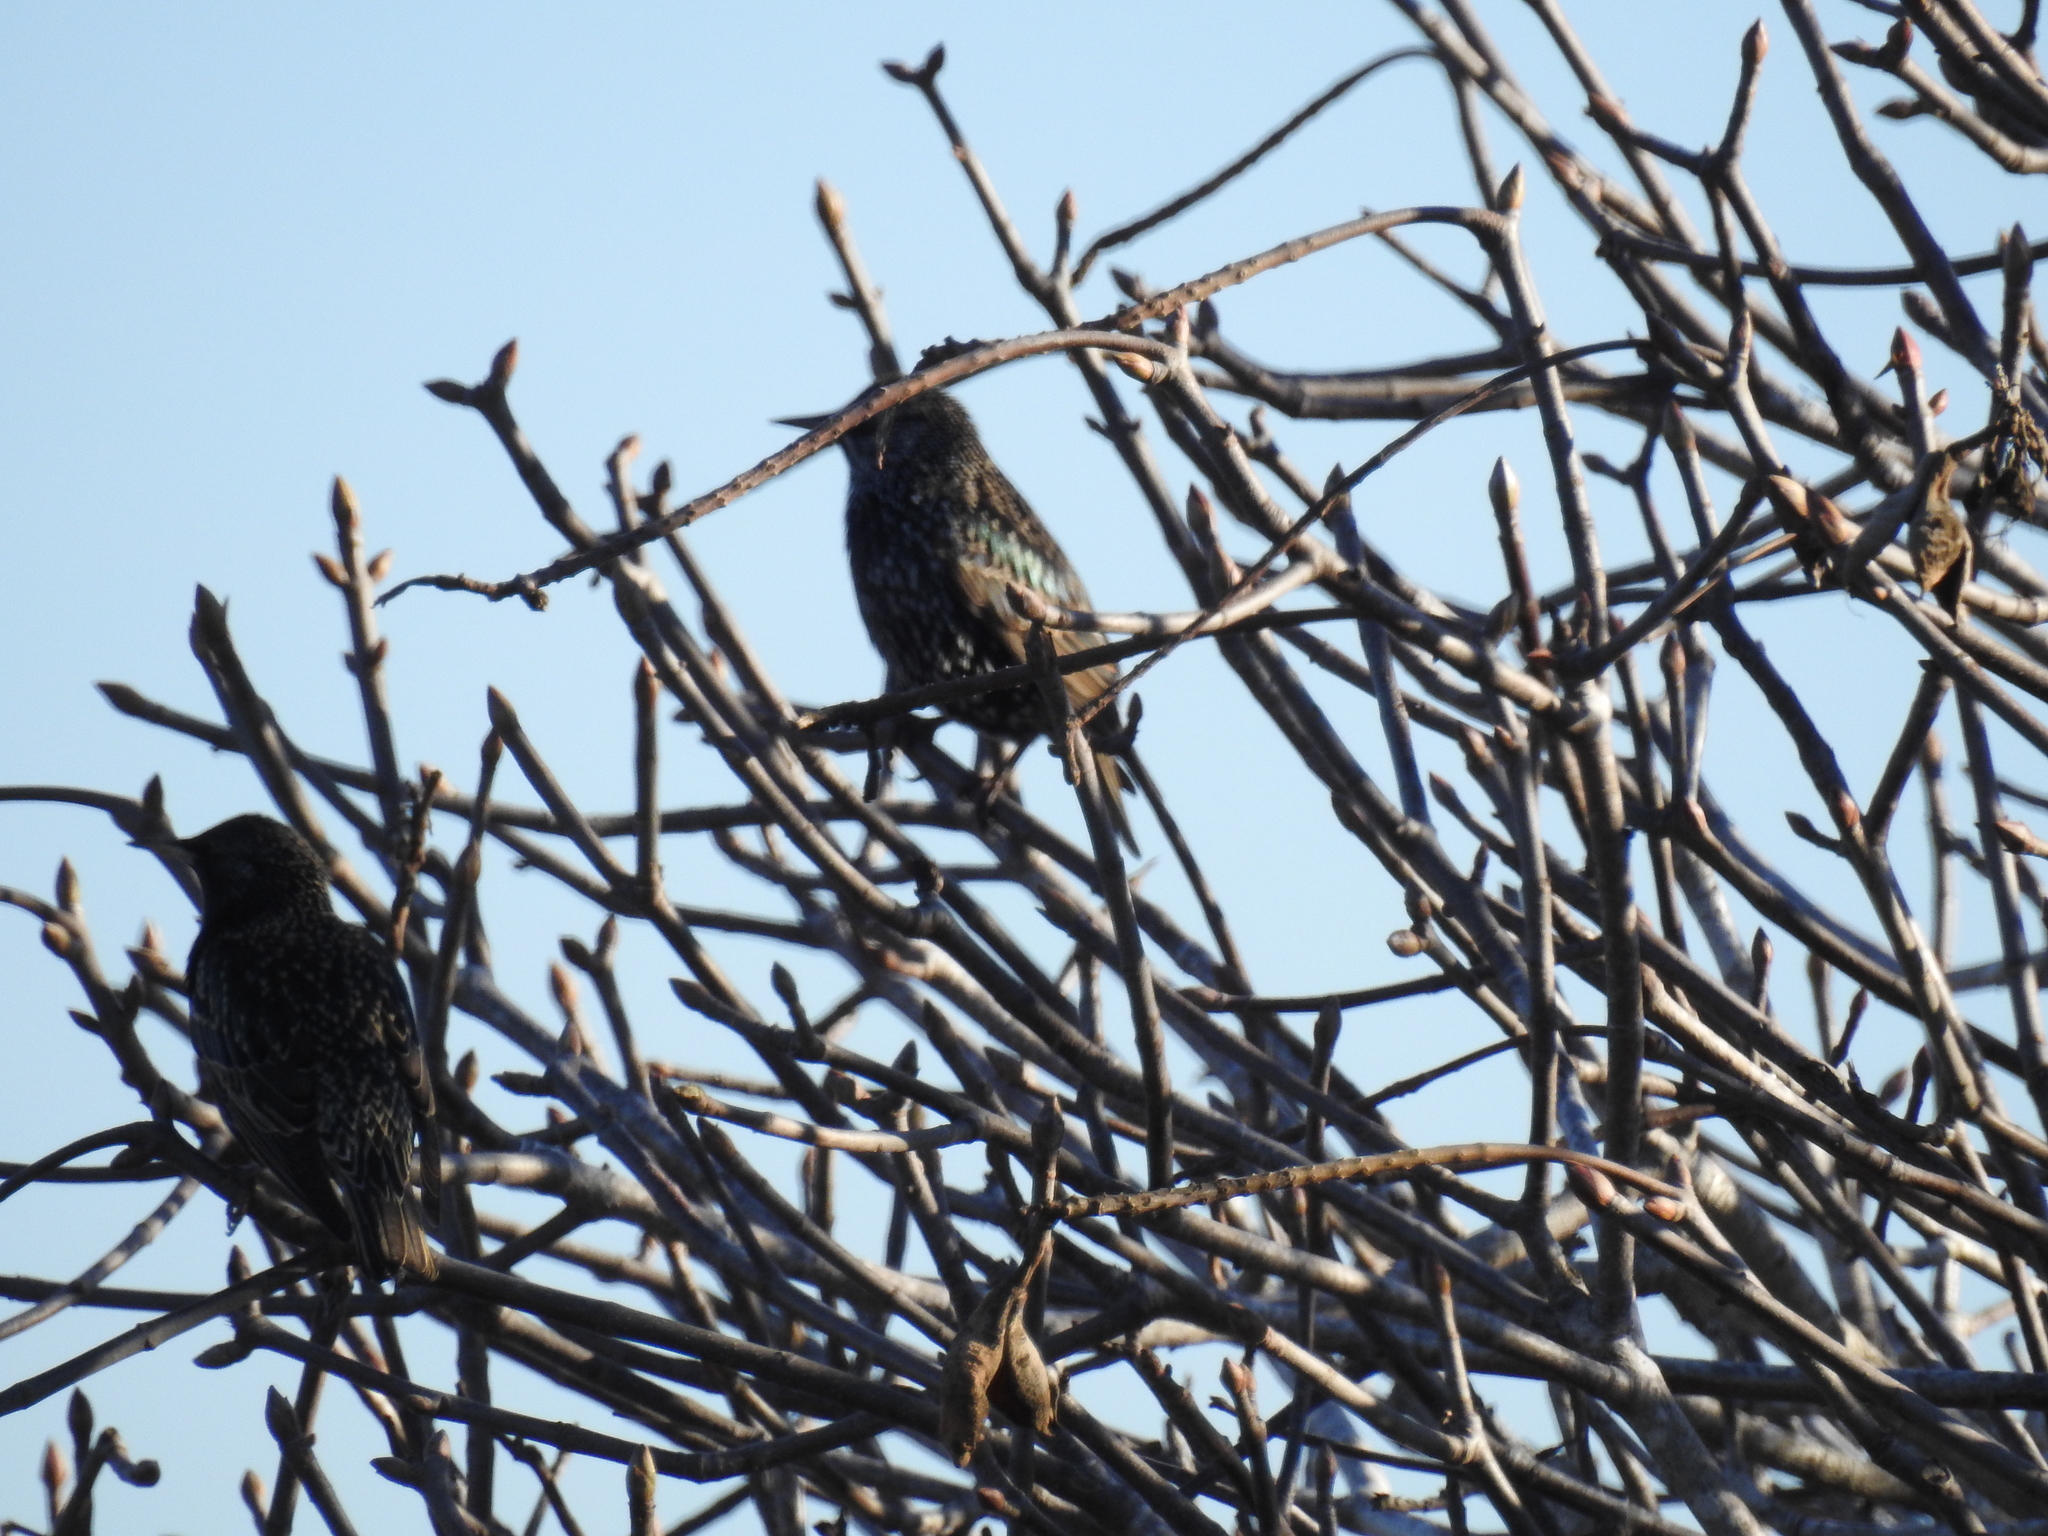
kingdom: Animalia
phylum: Chordata
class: Aves
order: Passeriformes
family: Sturnidae
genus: Sturnus
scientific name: Sturnus vulgaris
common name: Common starling
